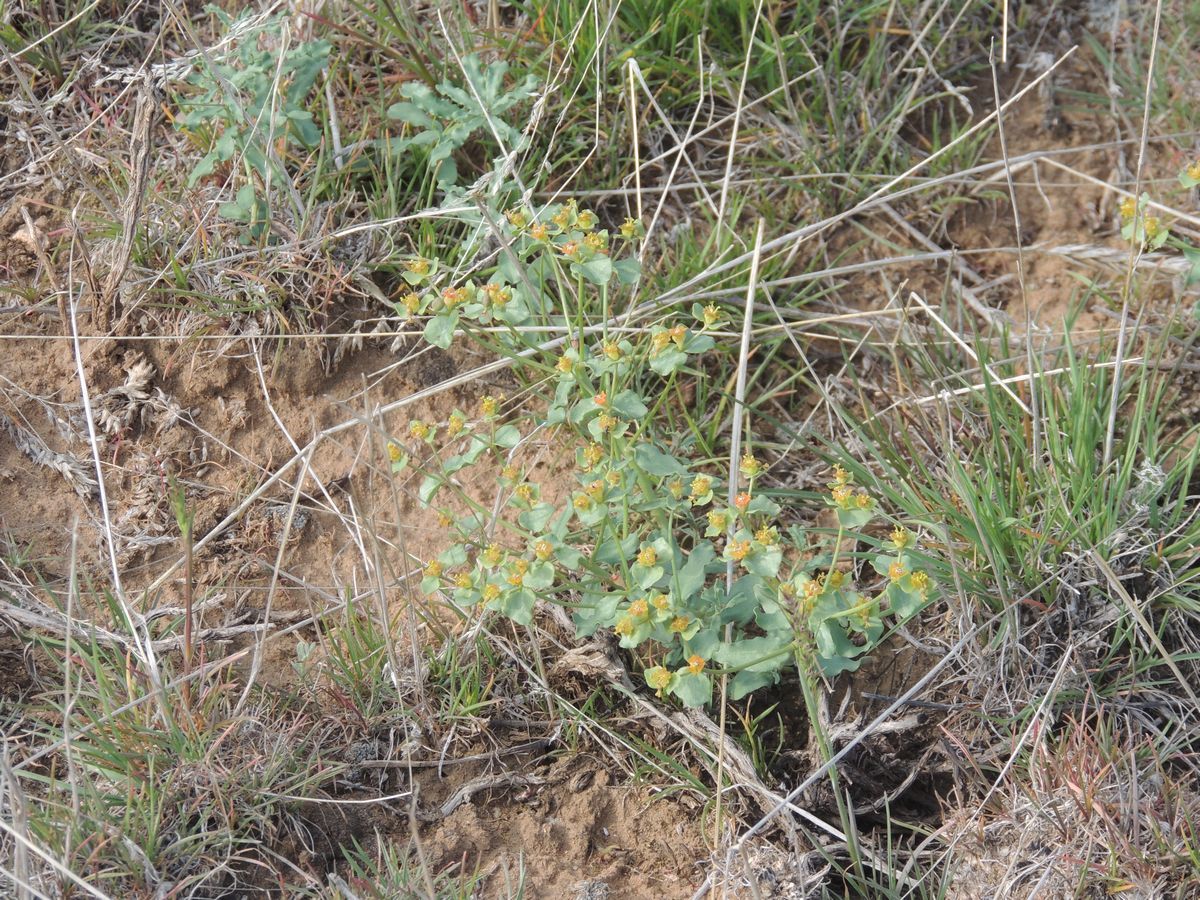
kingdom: Plantae
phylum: Tracheophyta
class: Magnoliopsida
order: Malpighiales
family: Euphorbiaceae
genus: Euphorbia
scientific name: Euphorbia undulata
